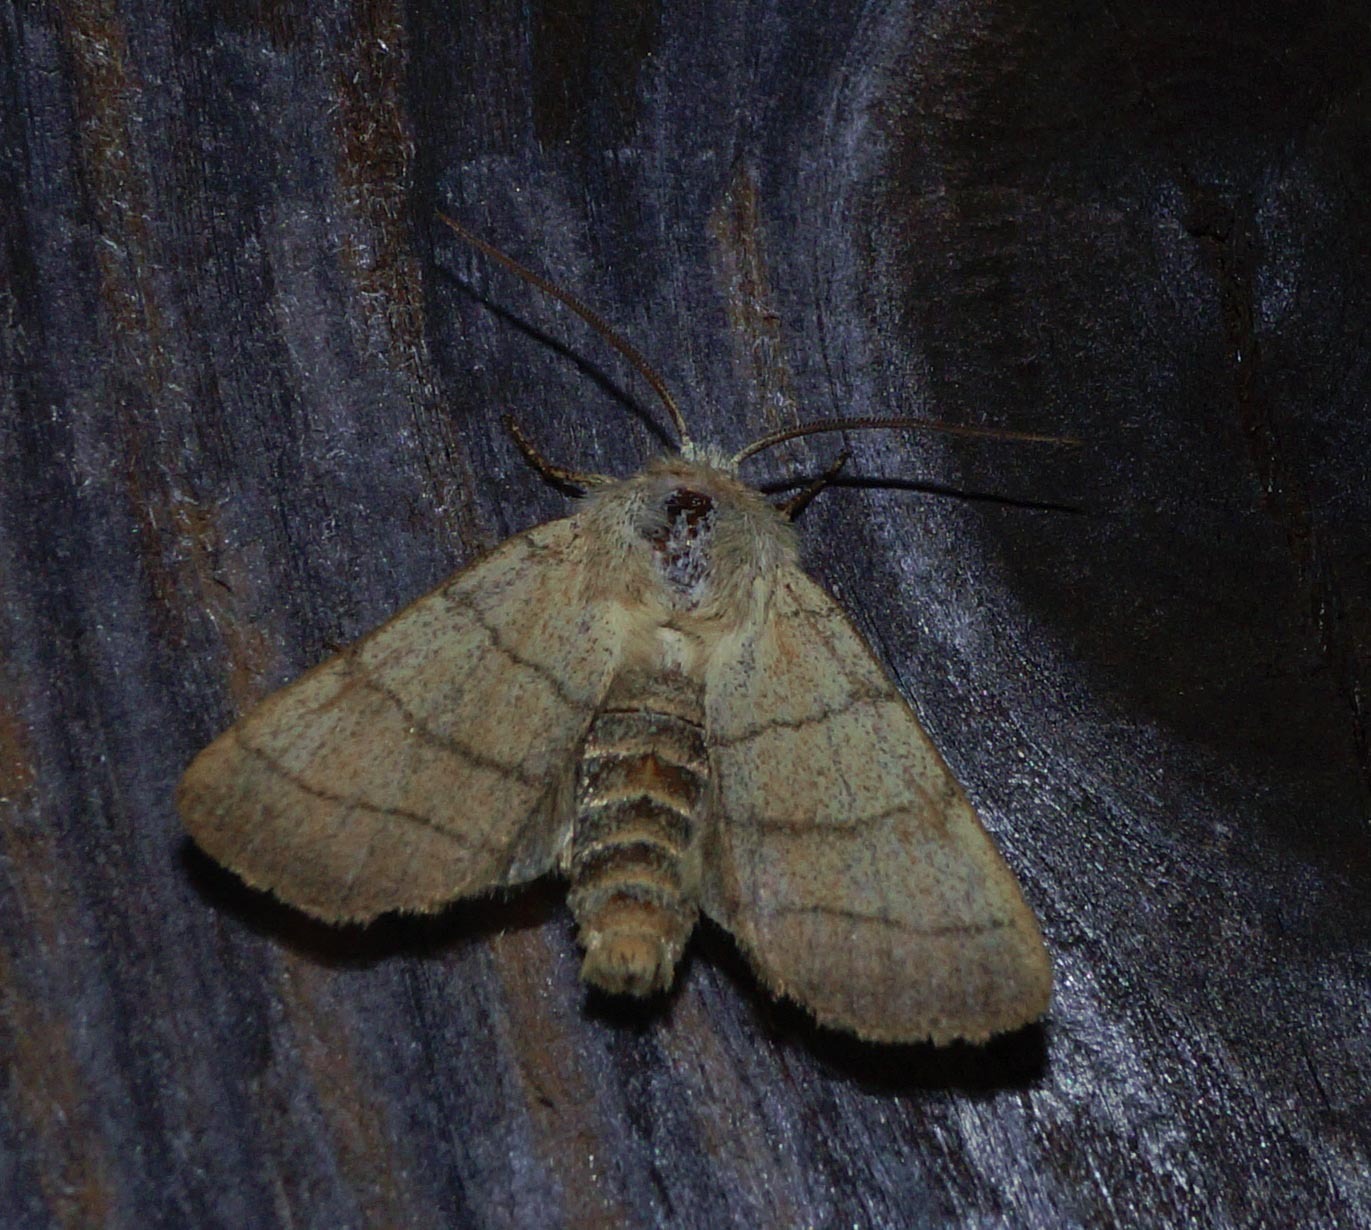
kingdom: Animalia
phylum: Arthropoda
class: Insecta
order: Lepidoptera
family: Noctuidae
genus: Charanyca
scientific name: Charanyca trigrammica
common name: Treble lines
